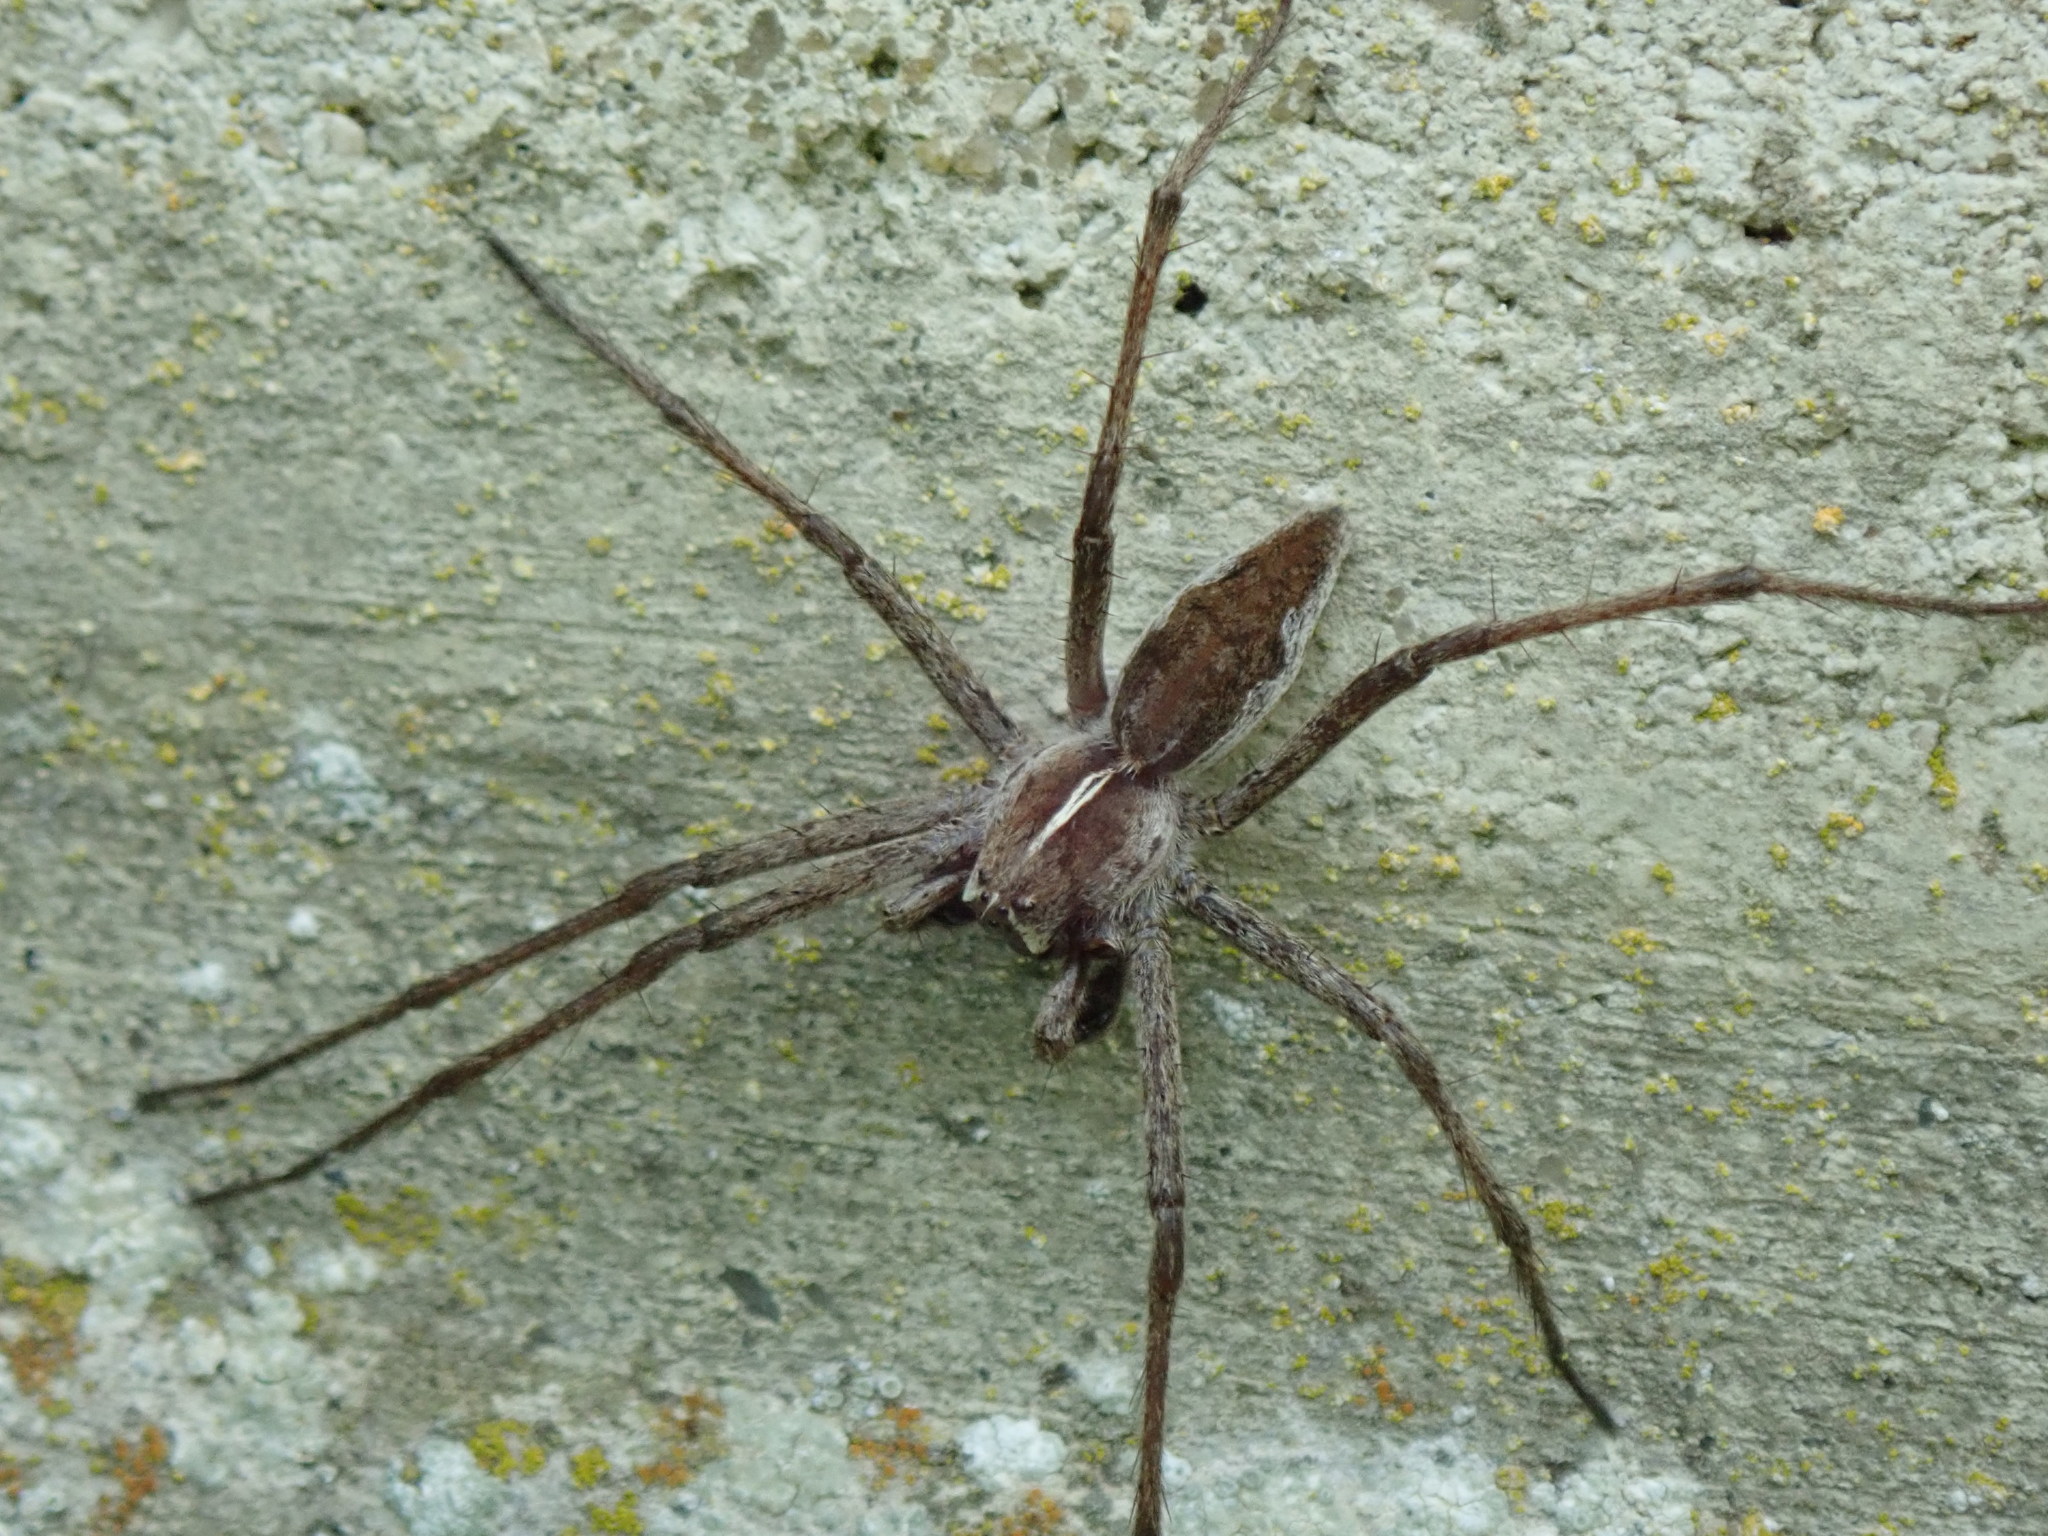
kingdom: Animalia
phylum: Arthropoda
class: Arachnida
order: Araneae
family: Pisauridae
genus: Pisaura
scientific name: Pisaura mirabilis
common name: Tent spider
